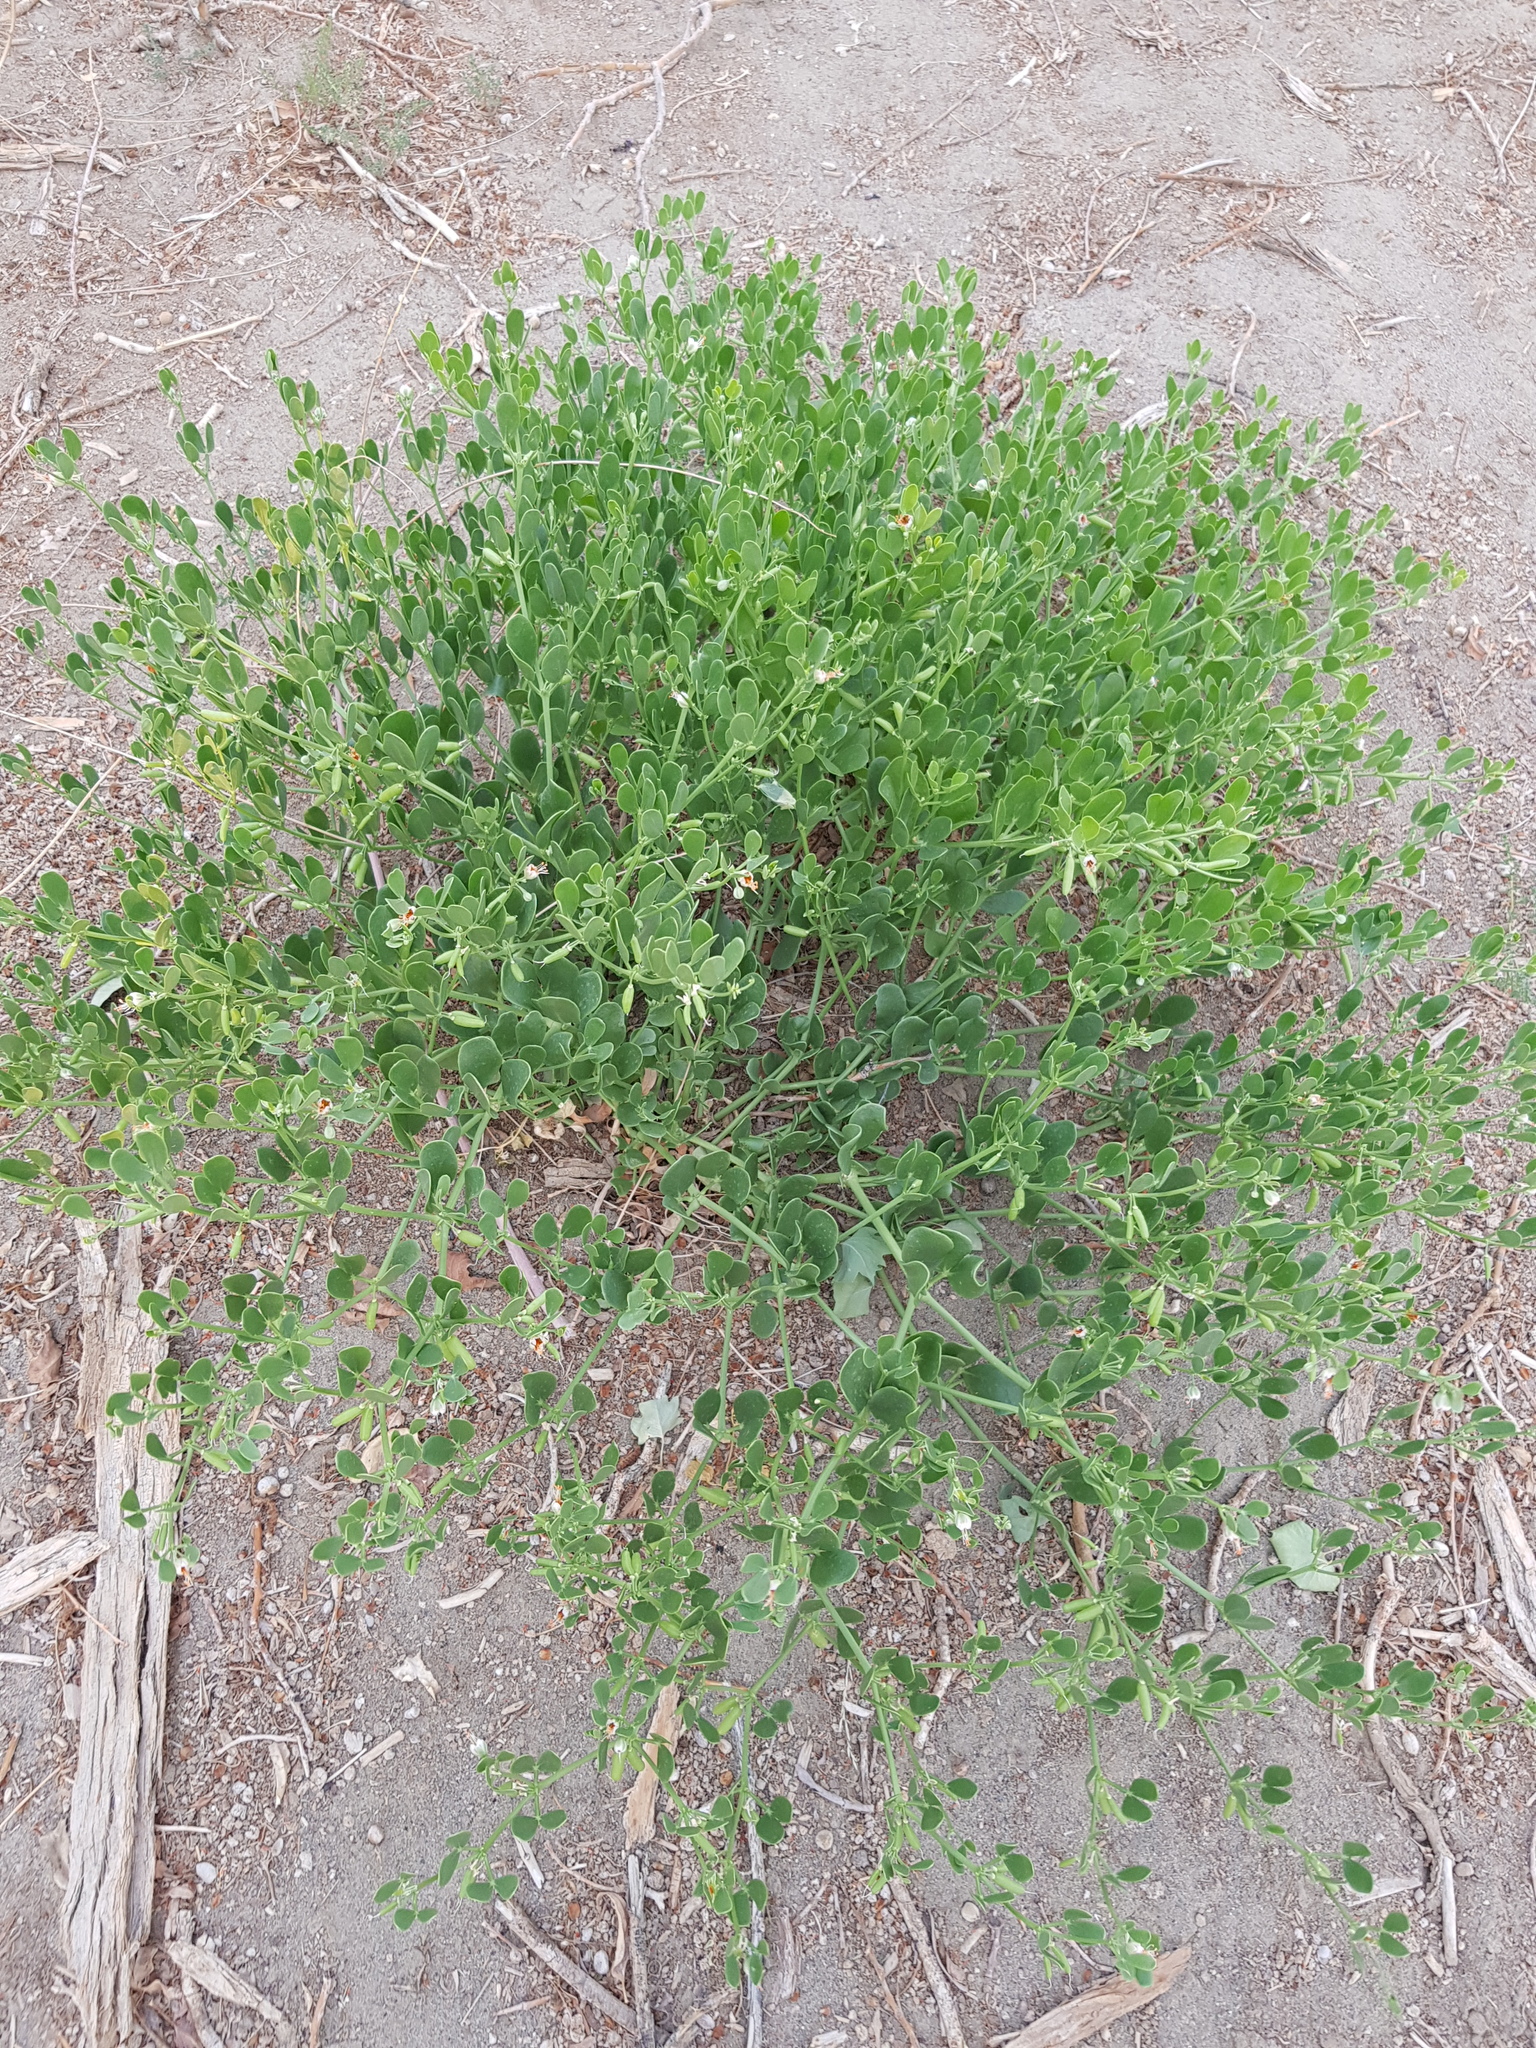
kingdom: Plantae
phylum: Tracheophyta
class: Magnoliopsida
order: Zygophyllales
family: Zygophyllaceae
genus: Zygophyllum
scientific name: Zygophyllum brachypterum
